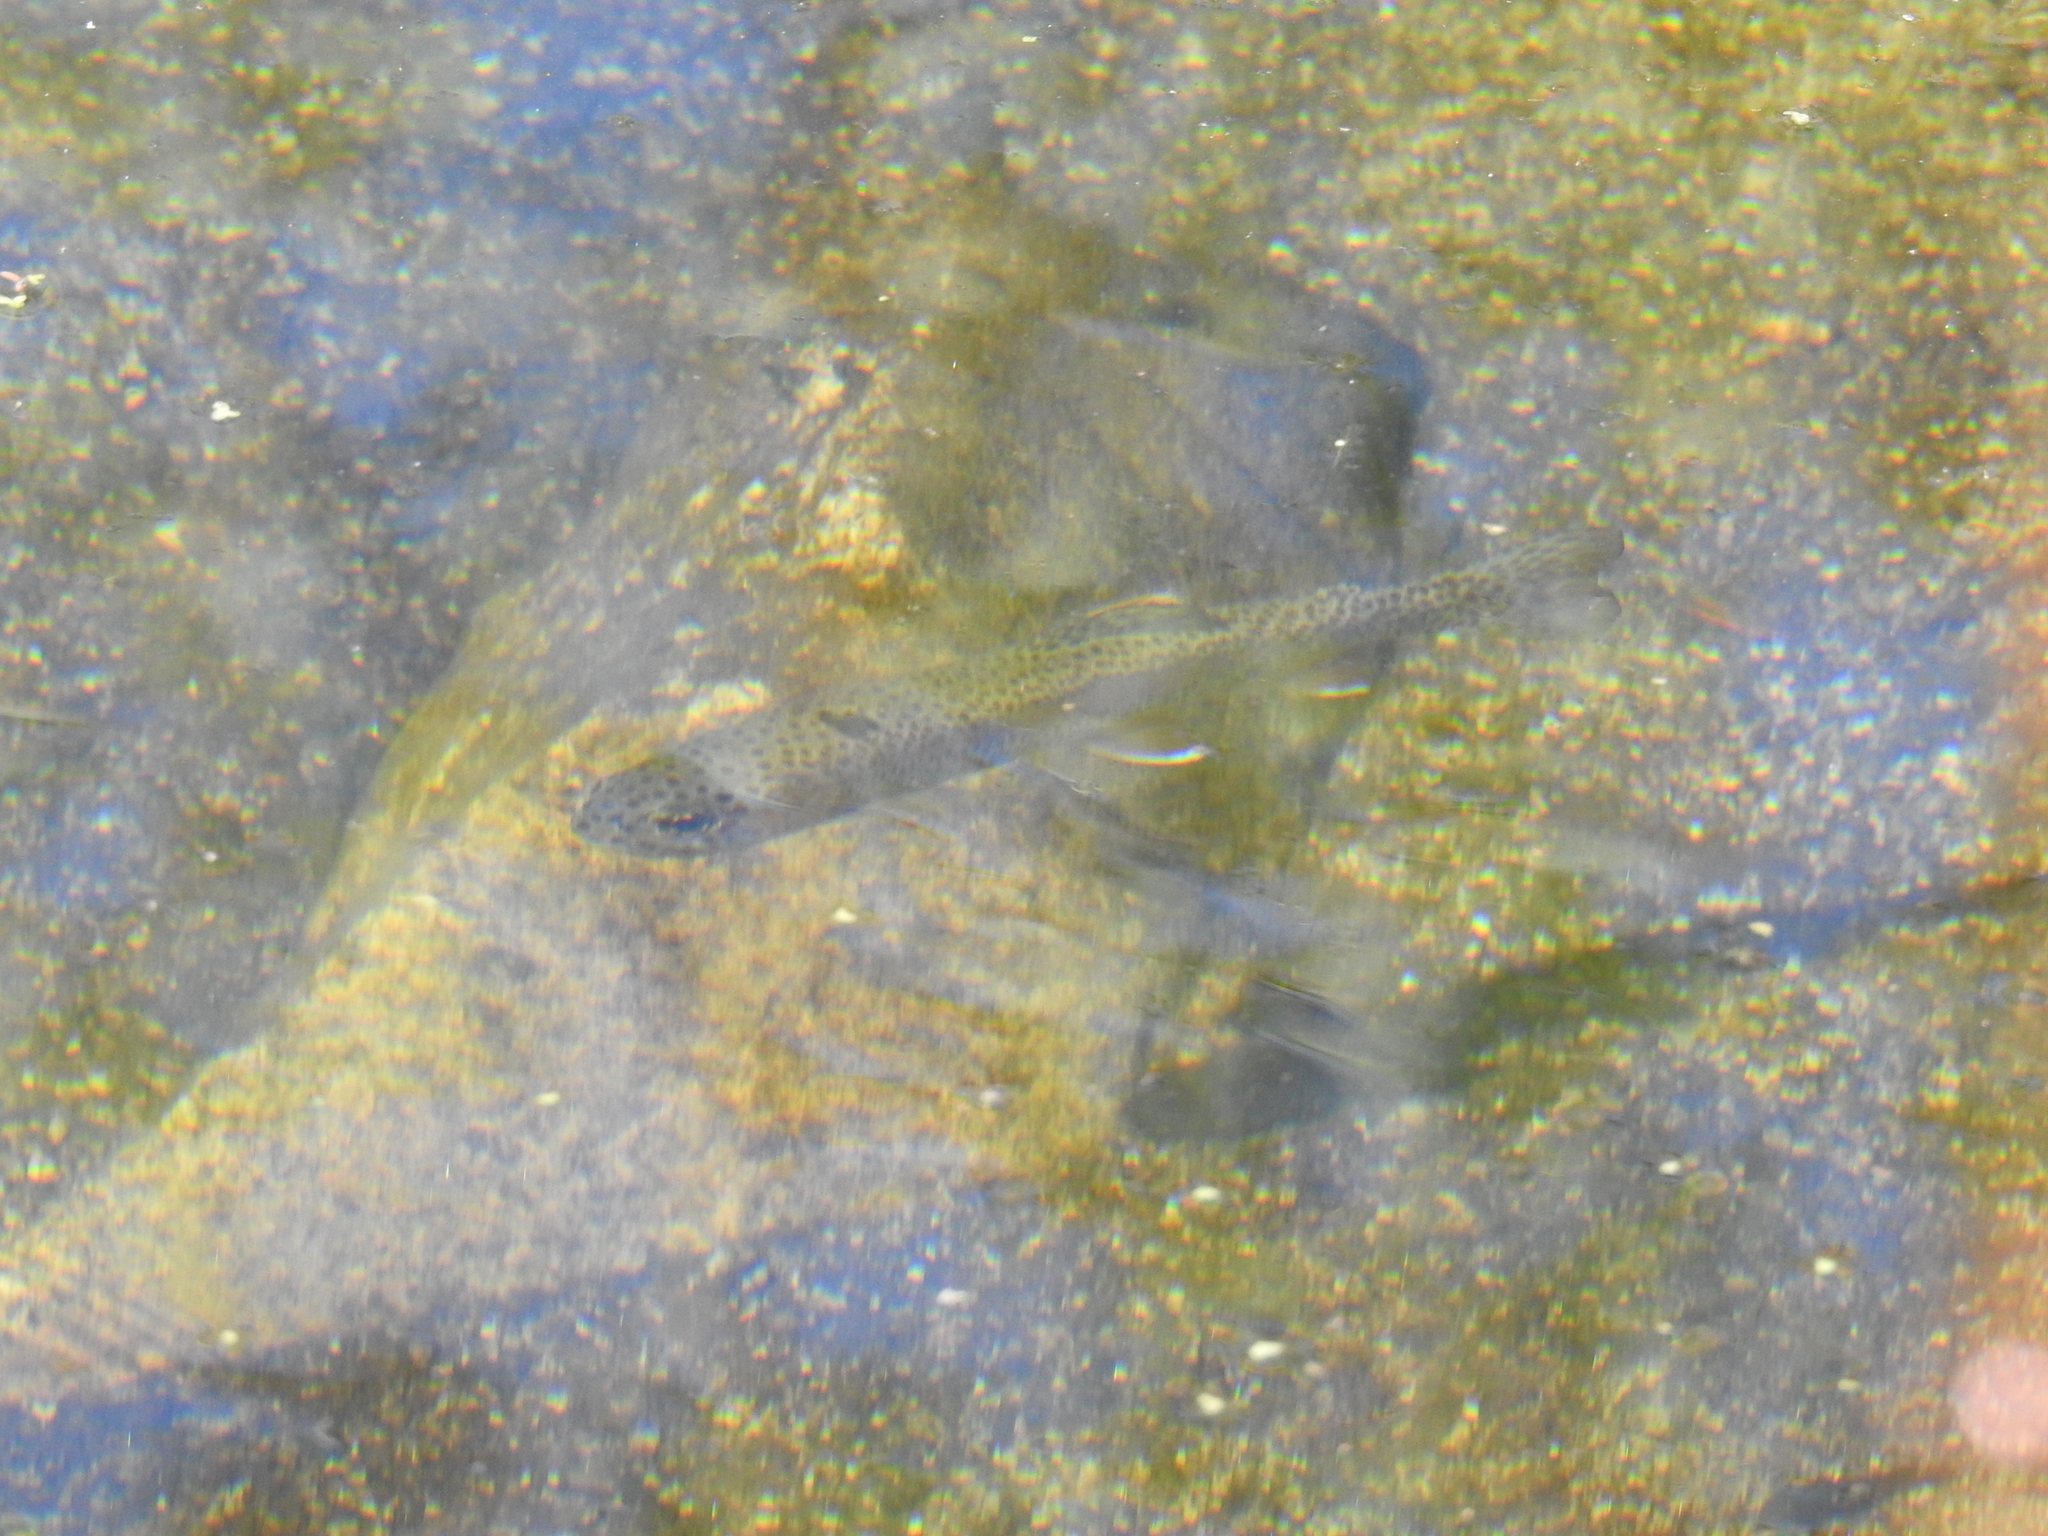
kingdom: Animalia
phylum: Chordata
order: Salmoniformes
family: Salmonidae
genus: Oncorhynchus
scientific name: Oncorhynchus
